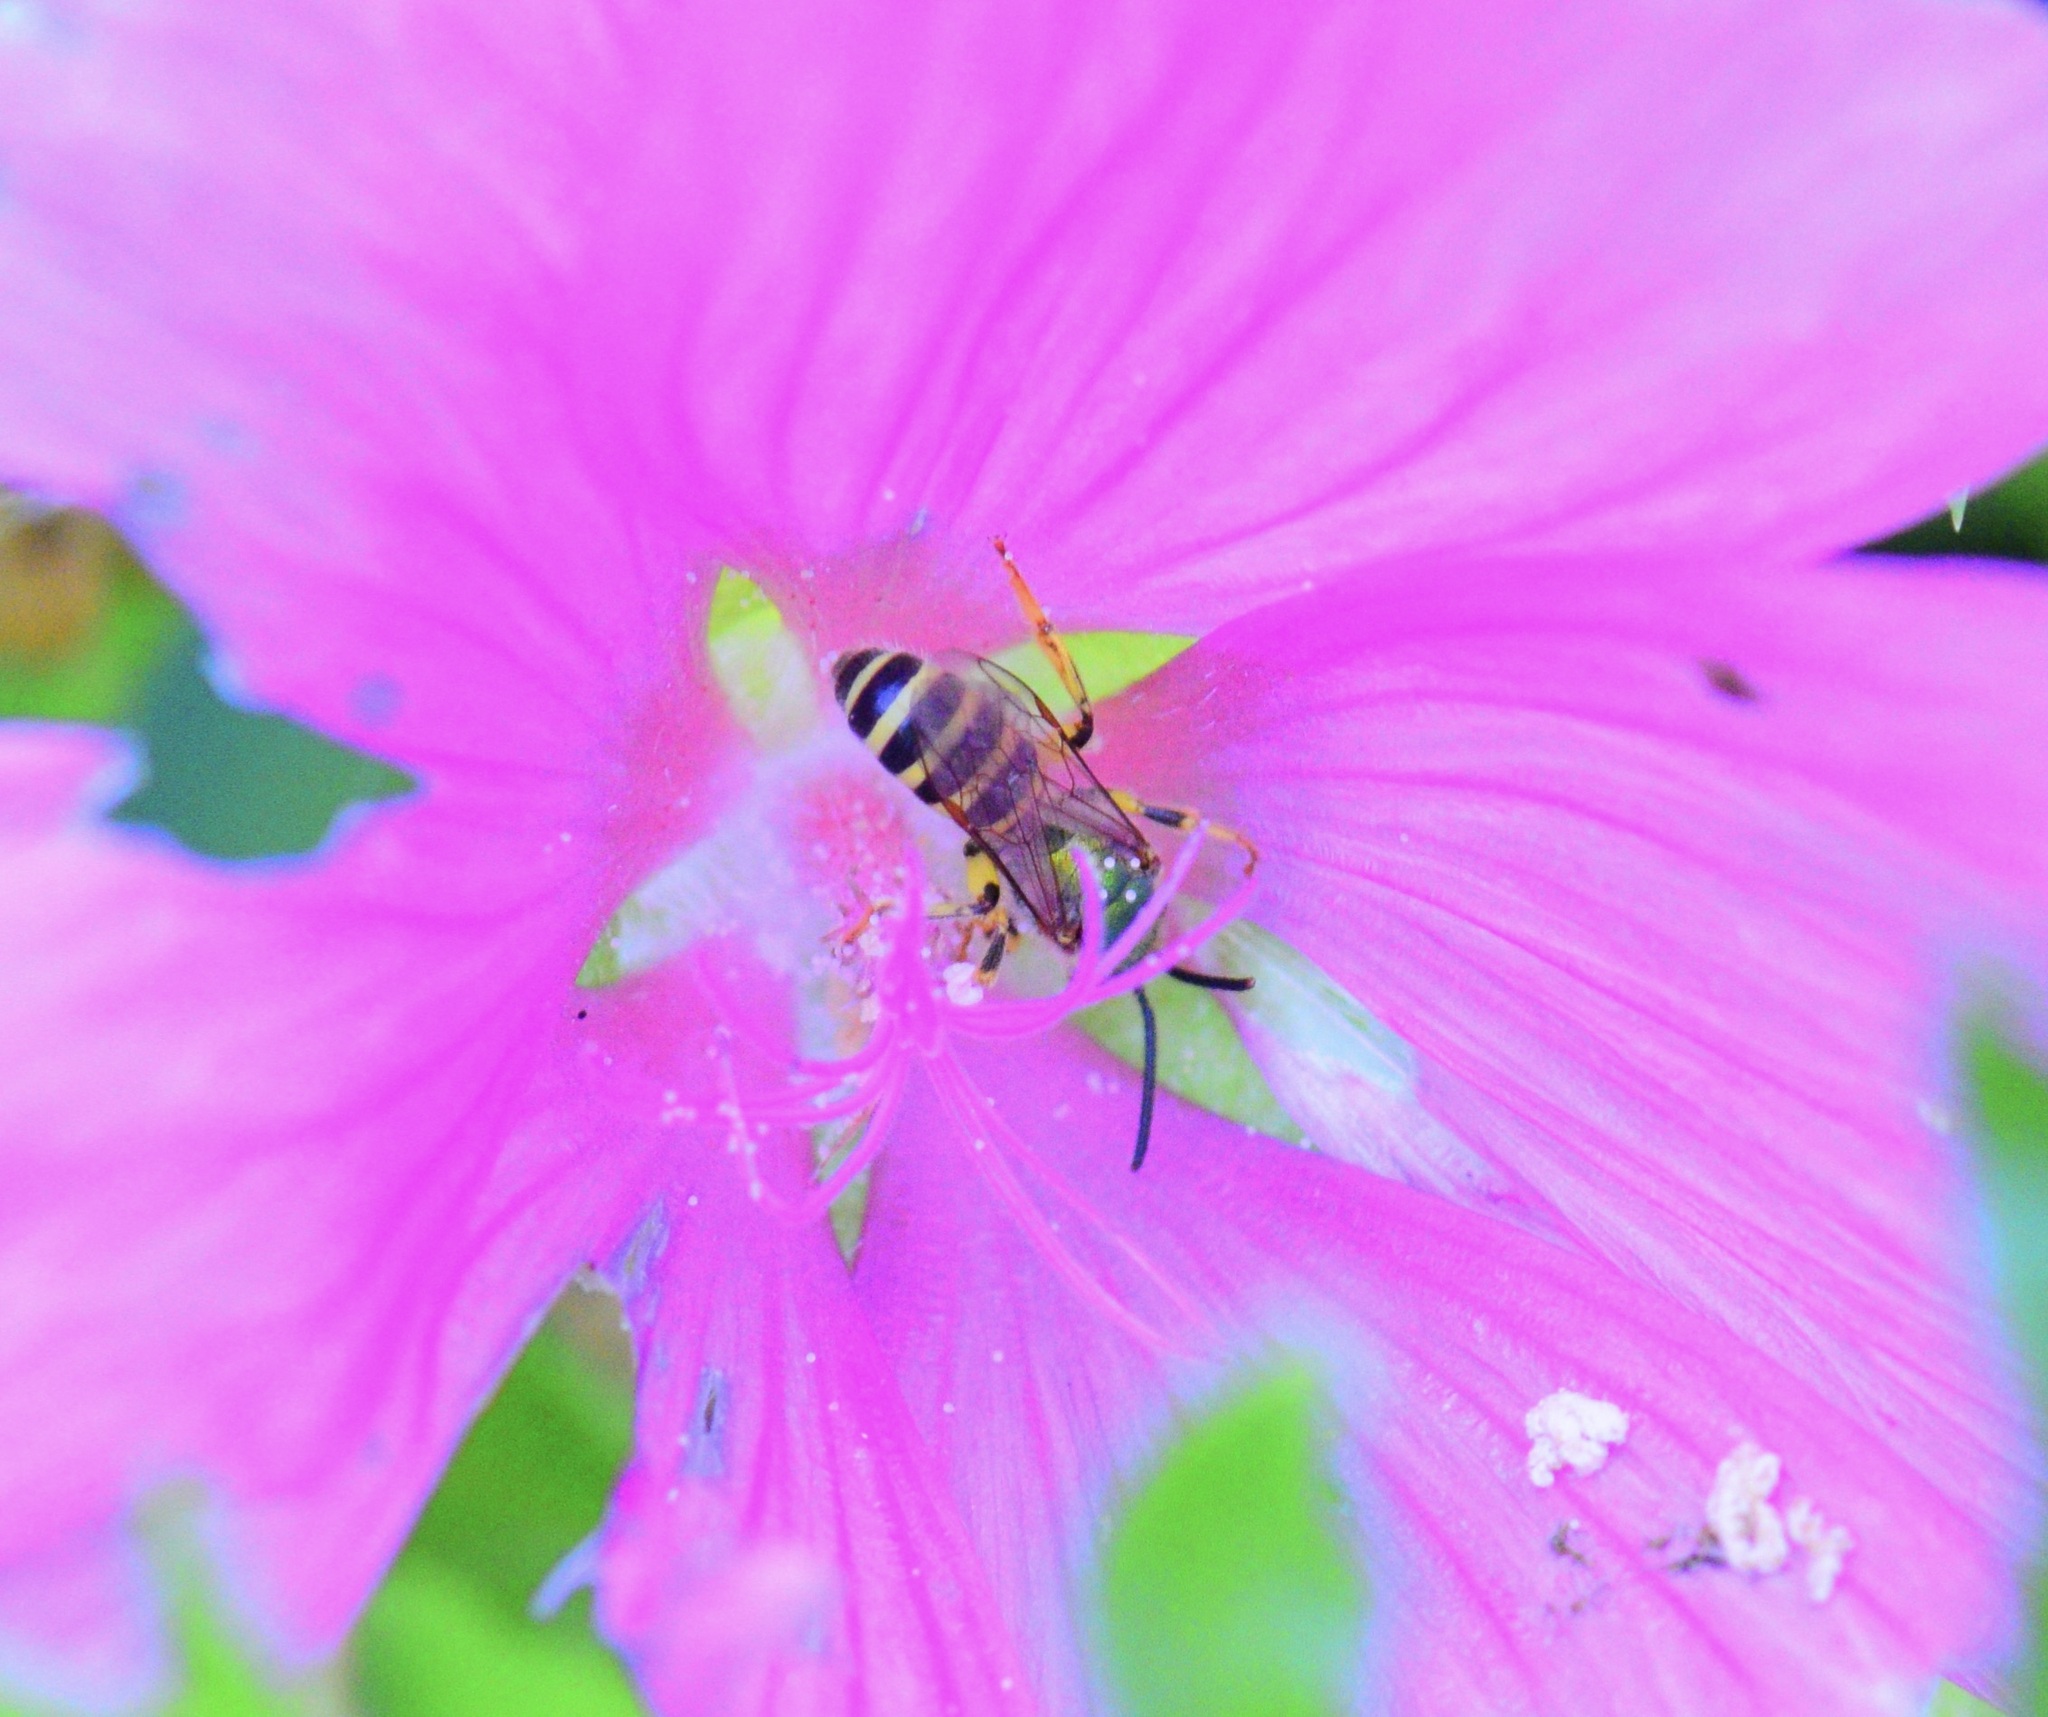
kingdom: Animalia
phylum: Arthropoda
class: Insecta
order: Hymenoptera
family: Halictidae
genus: Agapostemon
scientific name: Agapostemon virescens
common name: Bicolored striped sweat bee
